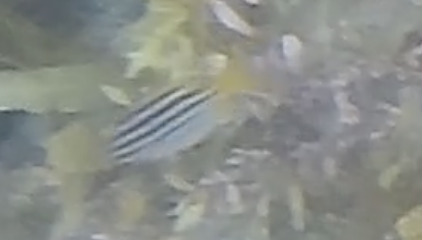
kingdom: Animalia
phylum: Chordata
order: Perciformes
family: Kyphosidae
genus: Atypichthys
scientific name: Atypichthys strigatus
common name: Australian mado
